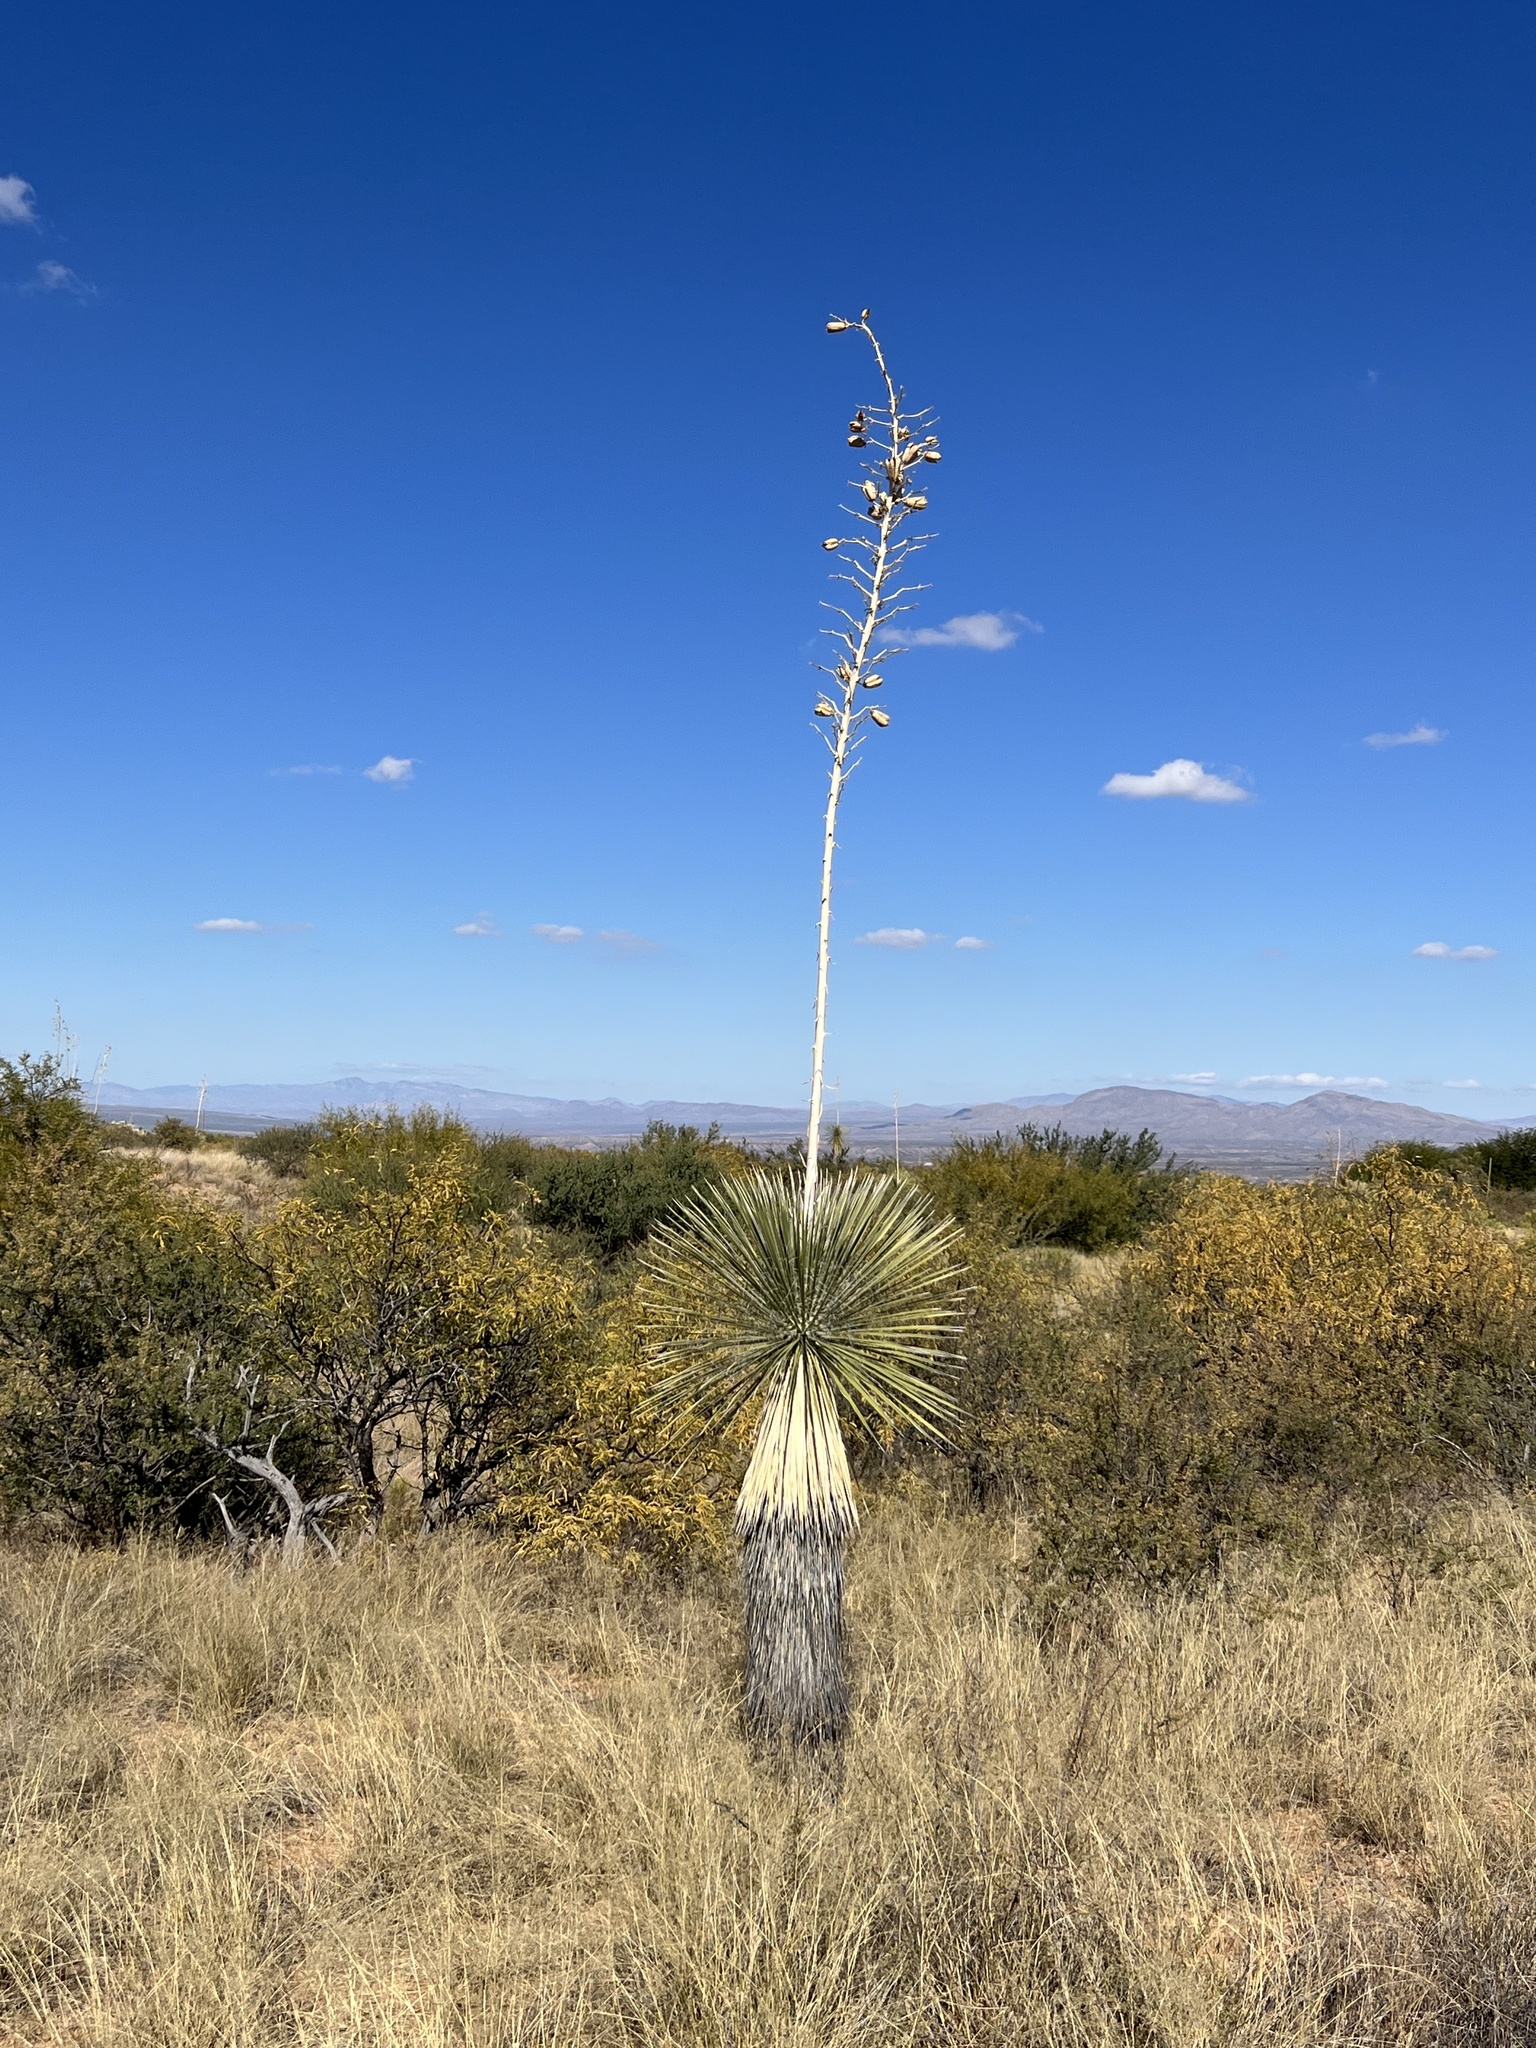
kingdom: Plantae
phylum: Tracheophyta
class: Liliopsida
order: Asparagales
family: Asparagaceae
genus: Yucca
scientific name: Yucca elata
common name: Palmella
